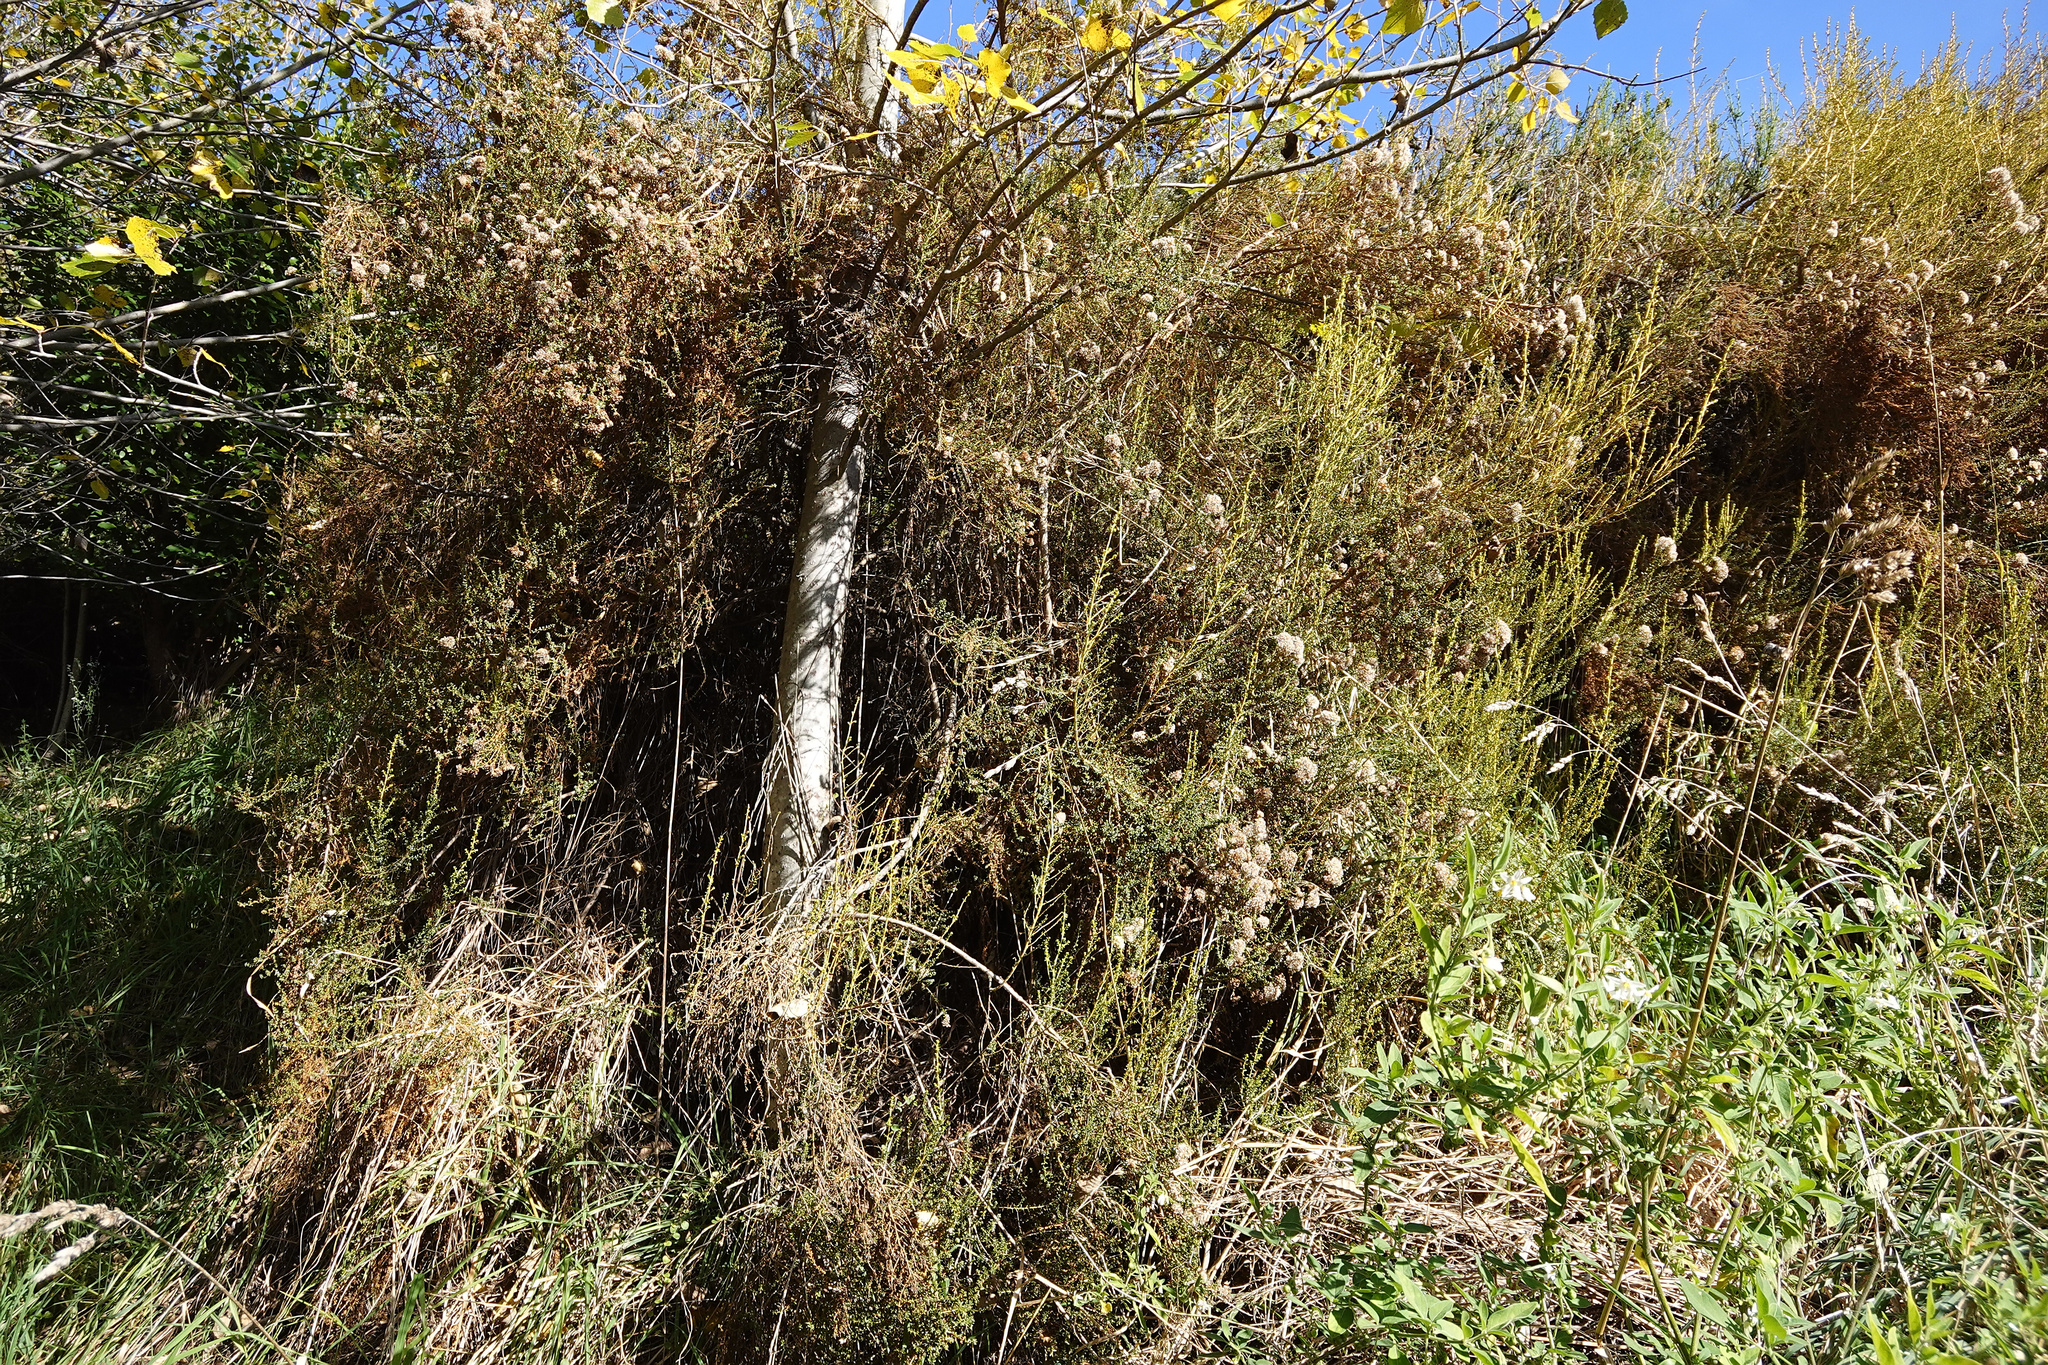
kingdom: Plantae
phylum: Tracheophyta
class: Magnoliopsida
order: Asterales
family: Asteraceae
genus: Ozothamnus
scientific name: Ozothamnus leptophyllus
